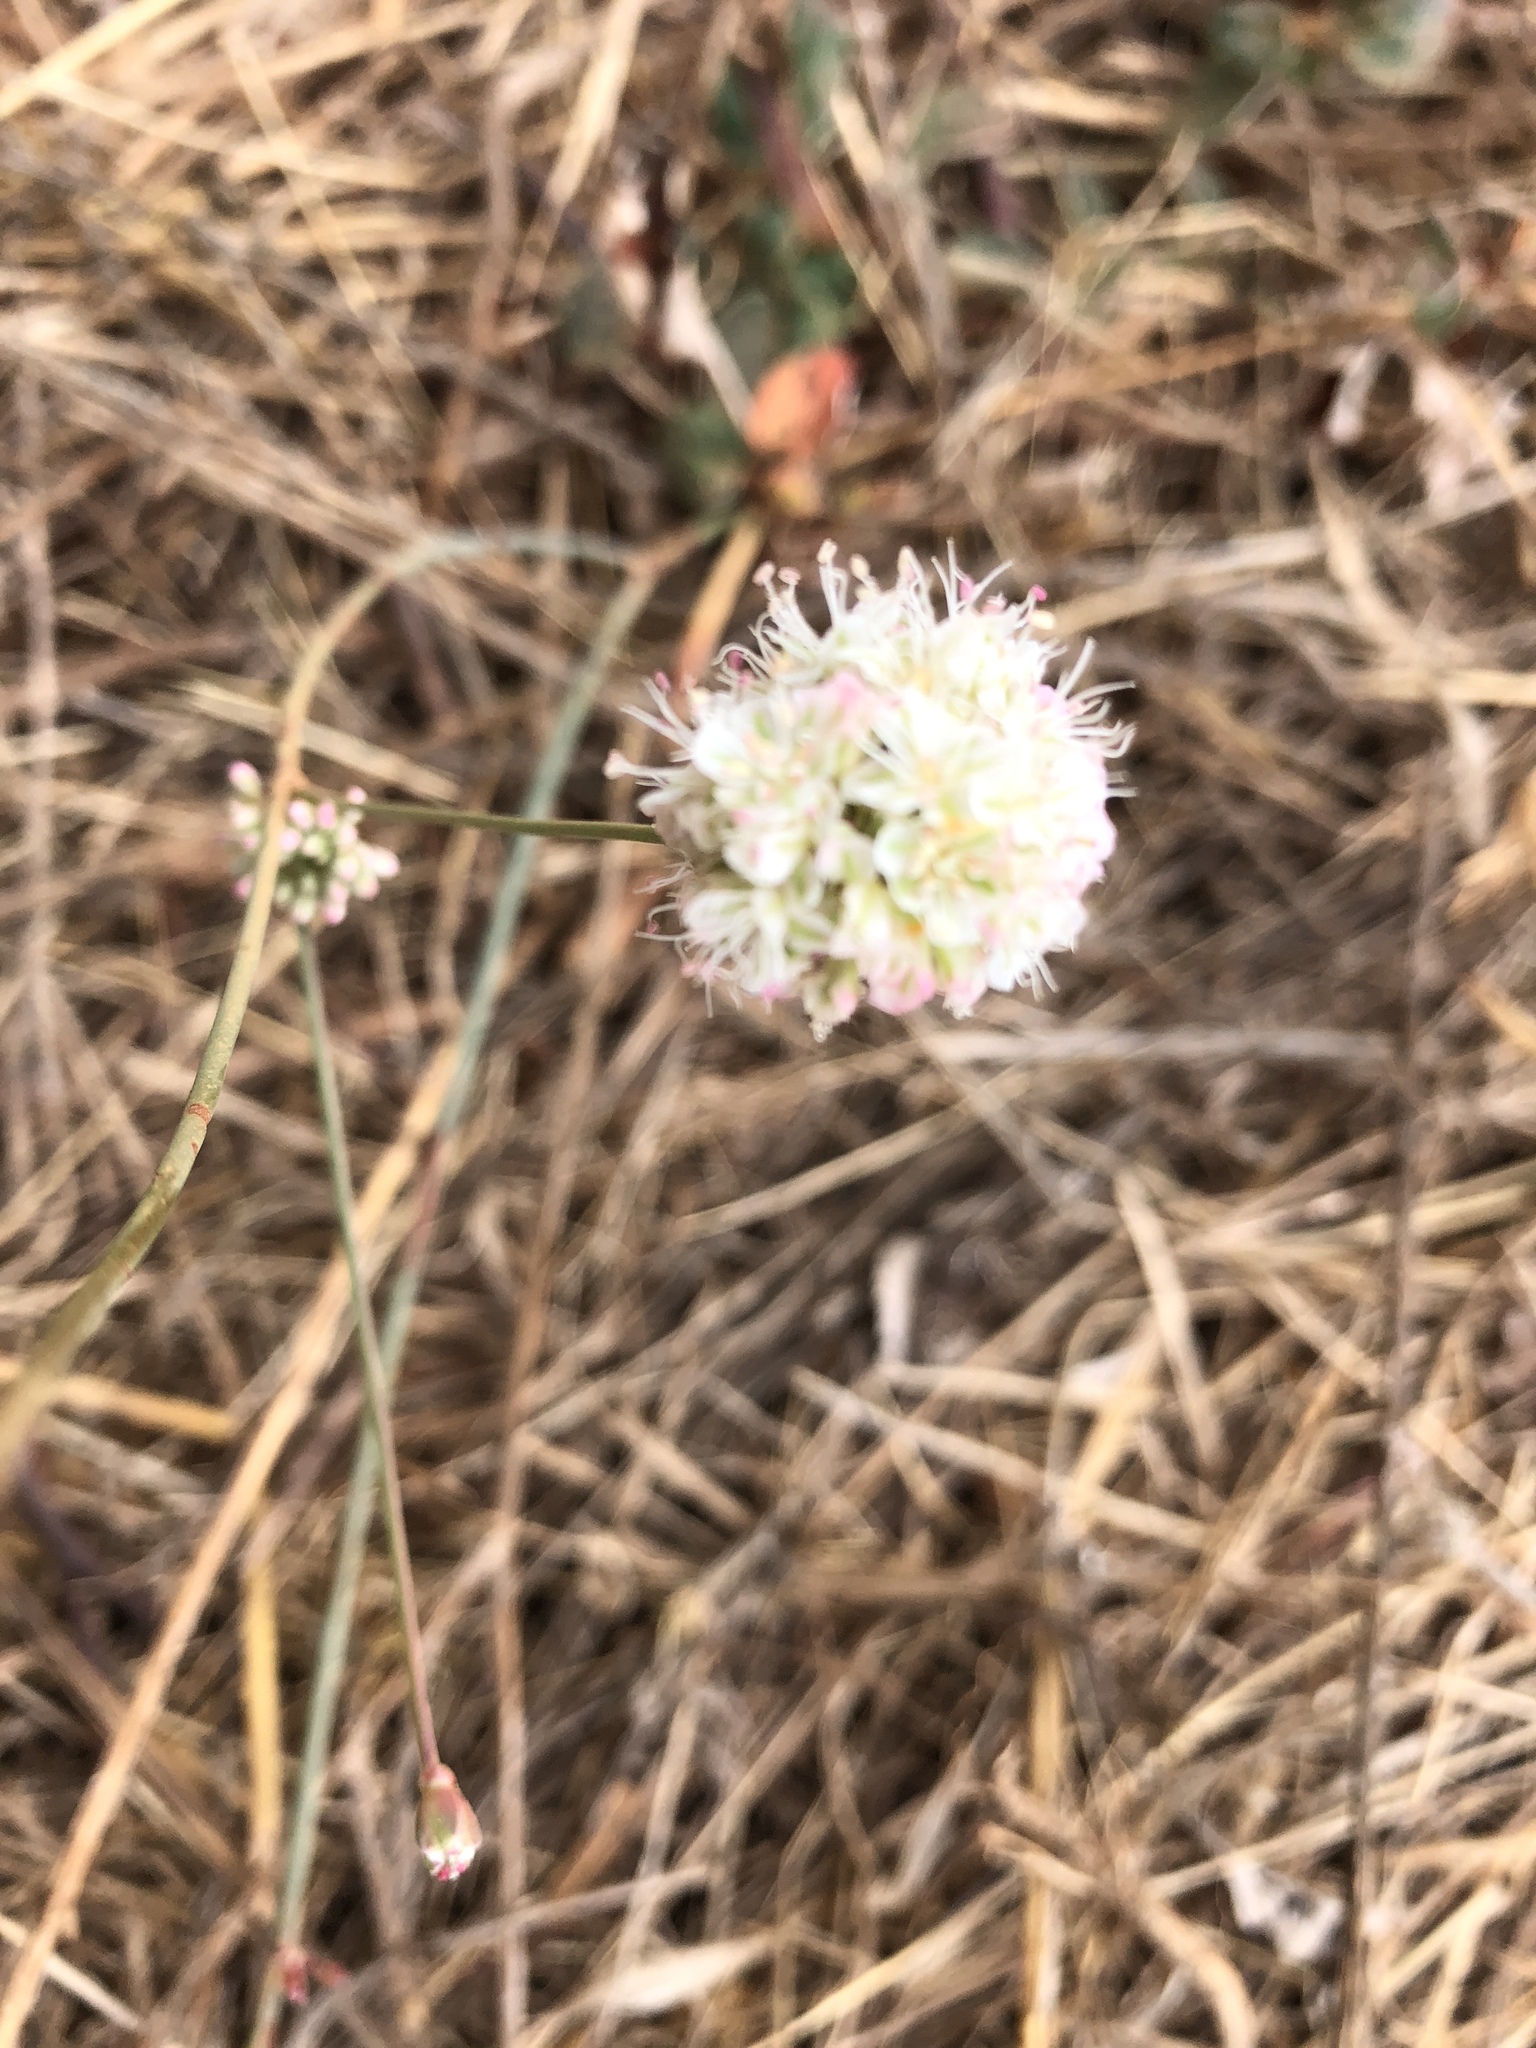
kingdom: Plantae
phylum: Tracheophyta
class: Magnoliopsida
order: Caryophyllales
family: Polygonaceae
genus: Eriogonum
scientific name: Eriogonum nudum
